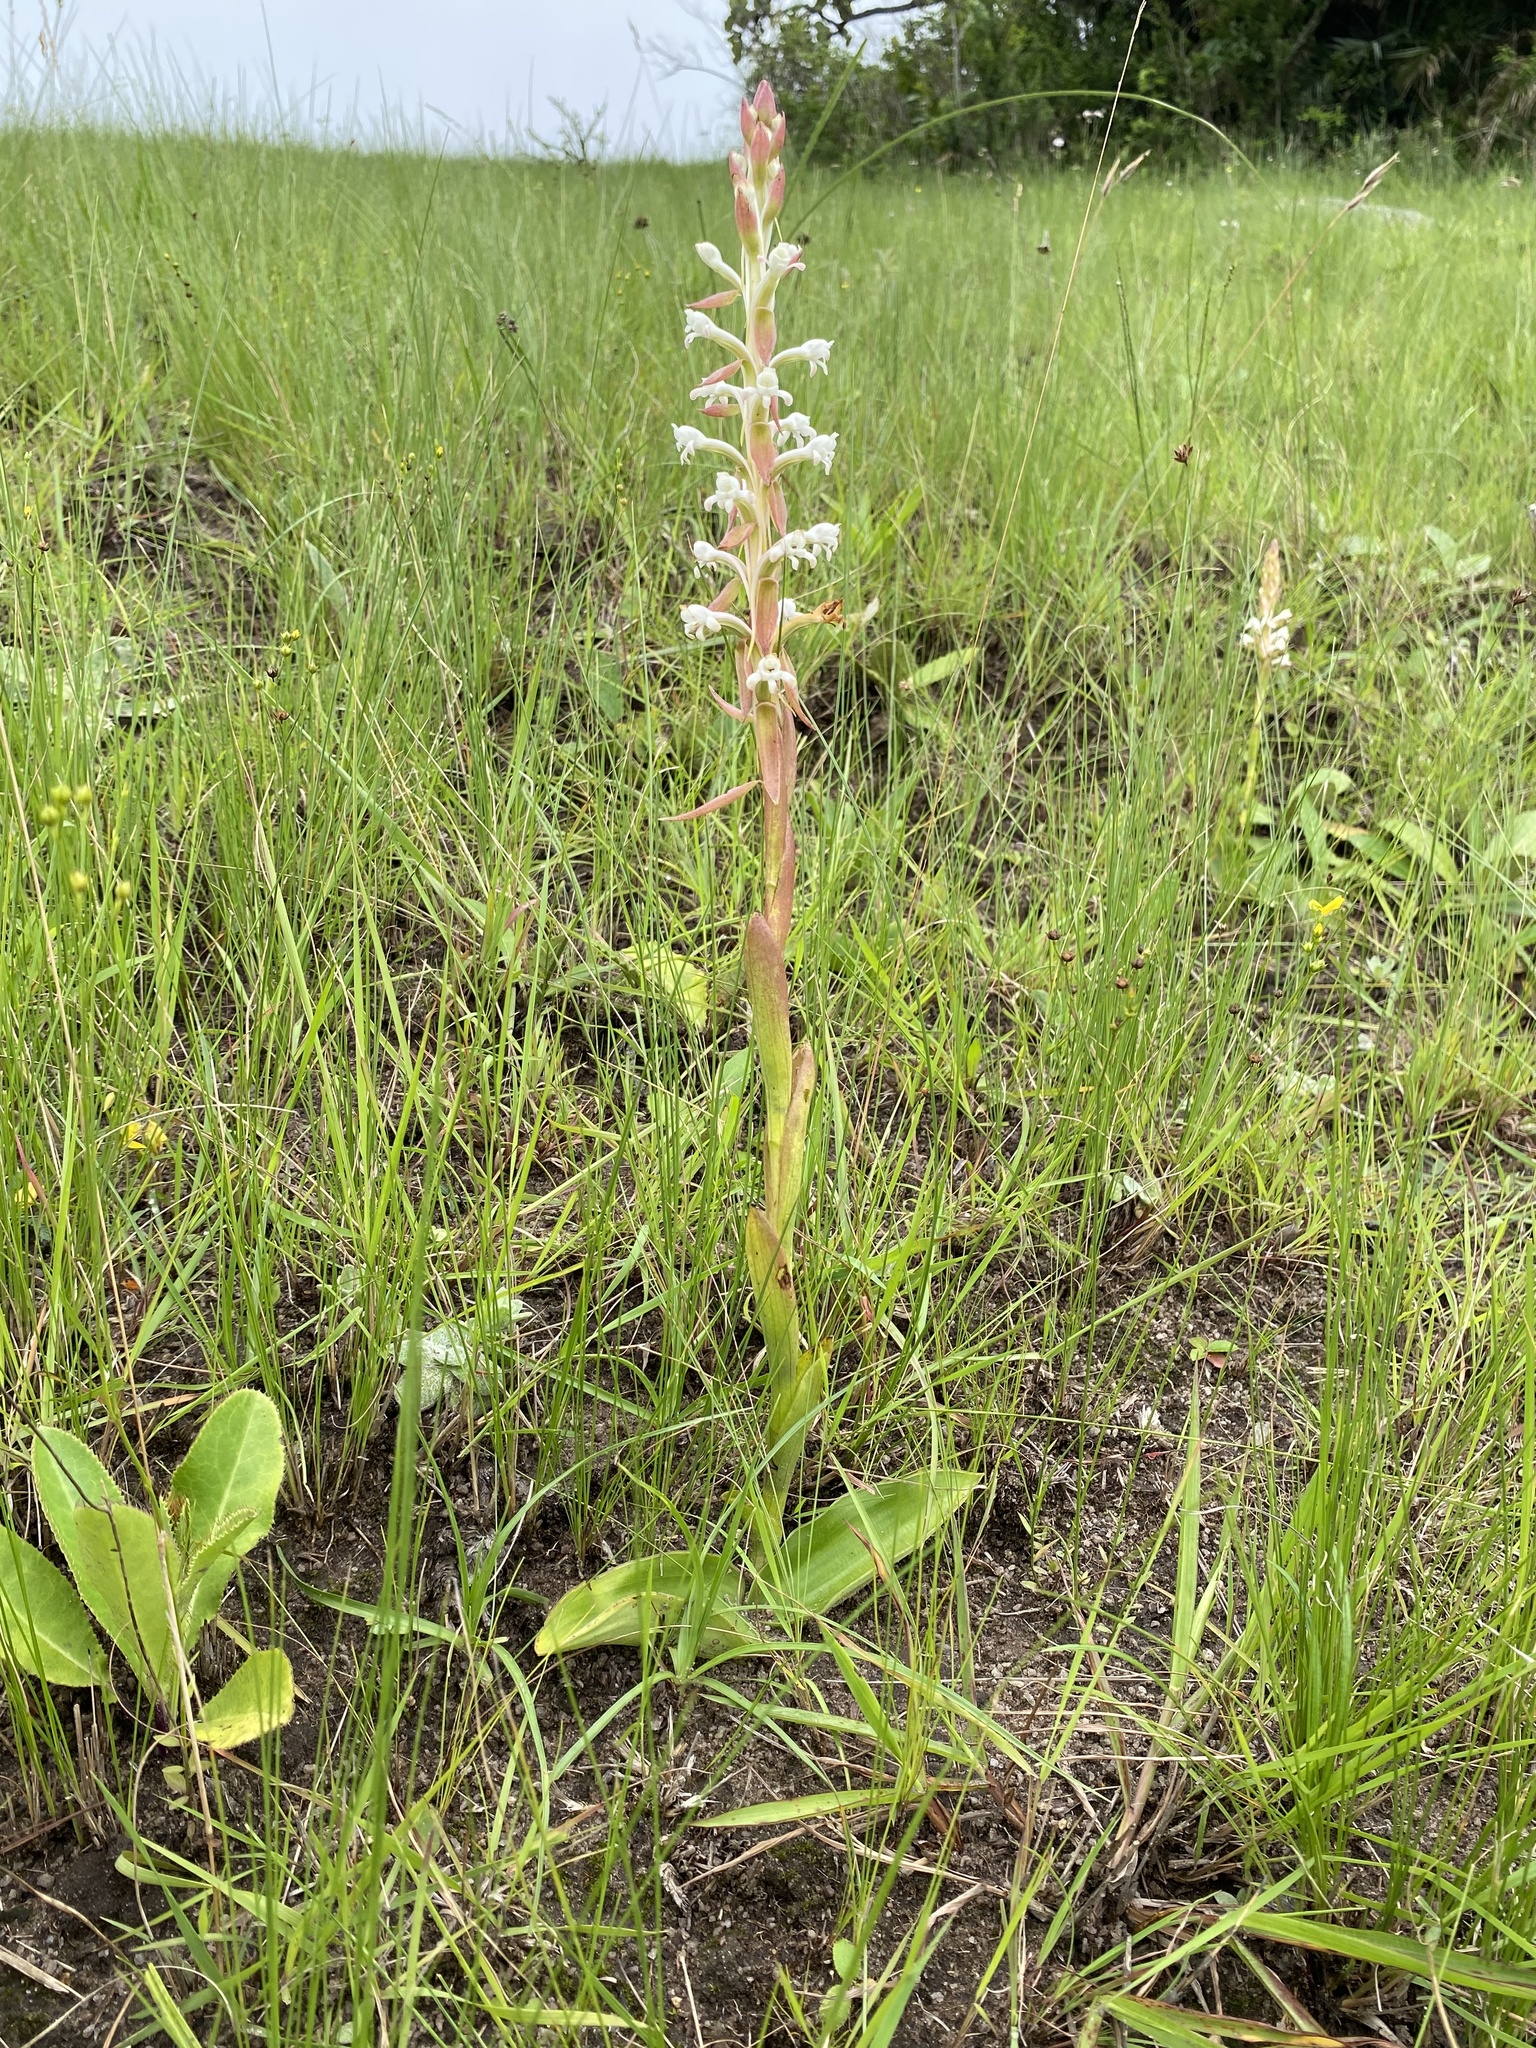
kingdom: Plantae
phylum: Tracheophyta
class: Liliopsida
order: Asparagales
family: Orchidaceae
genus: Satyrium
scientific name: Satyrium longicauda
